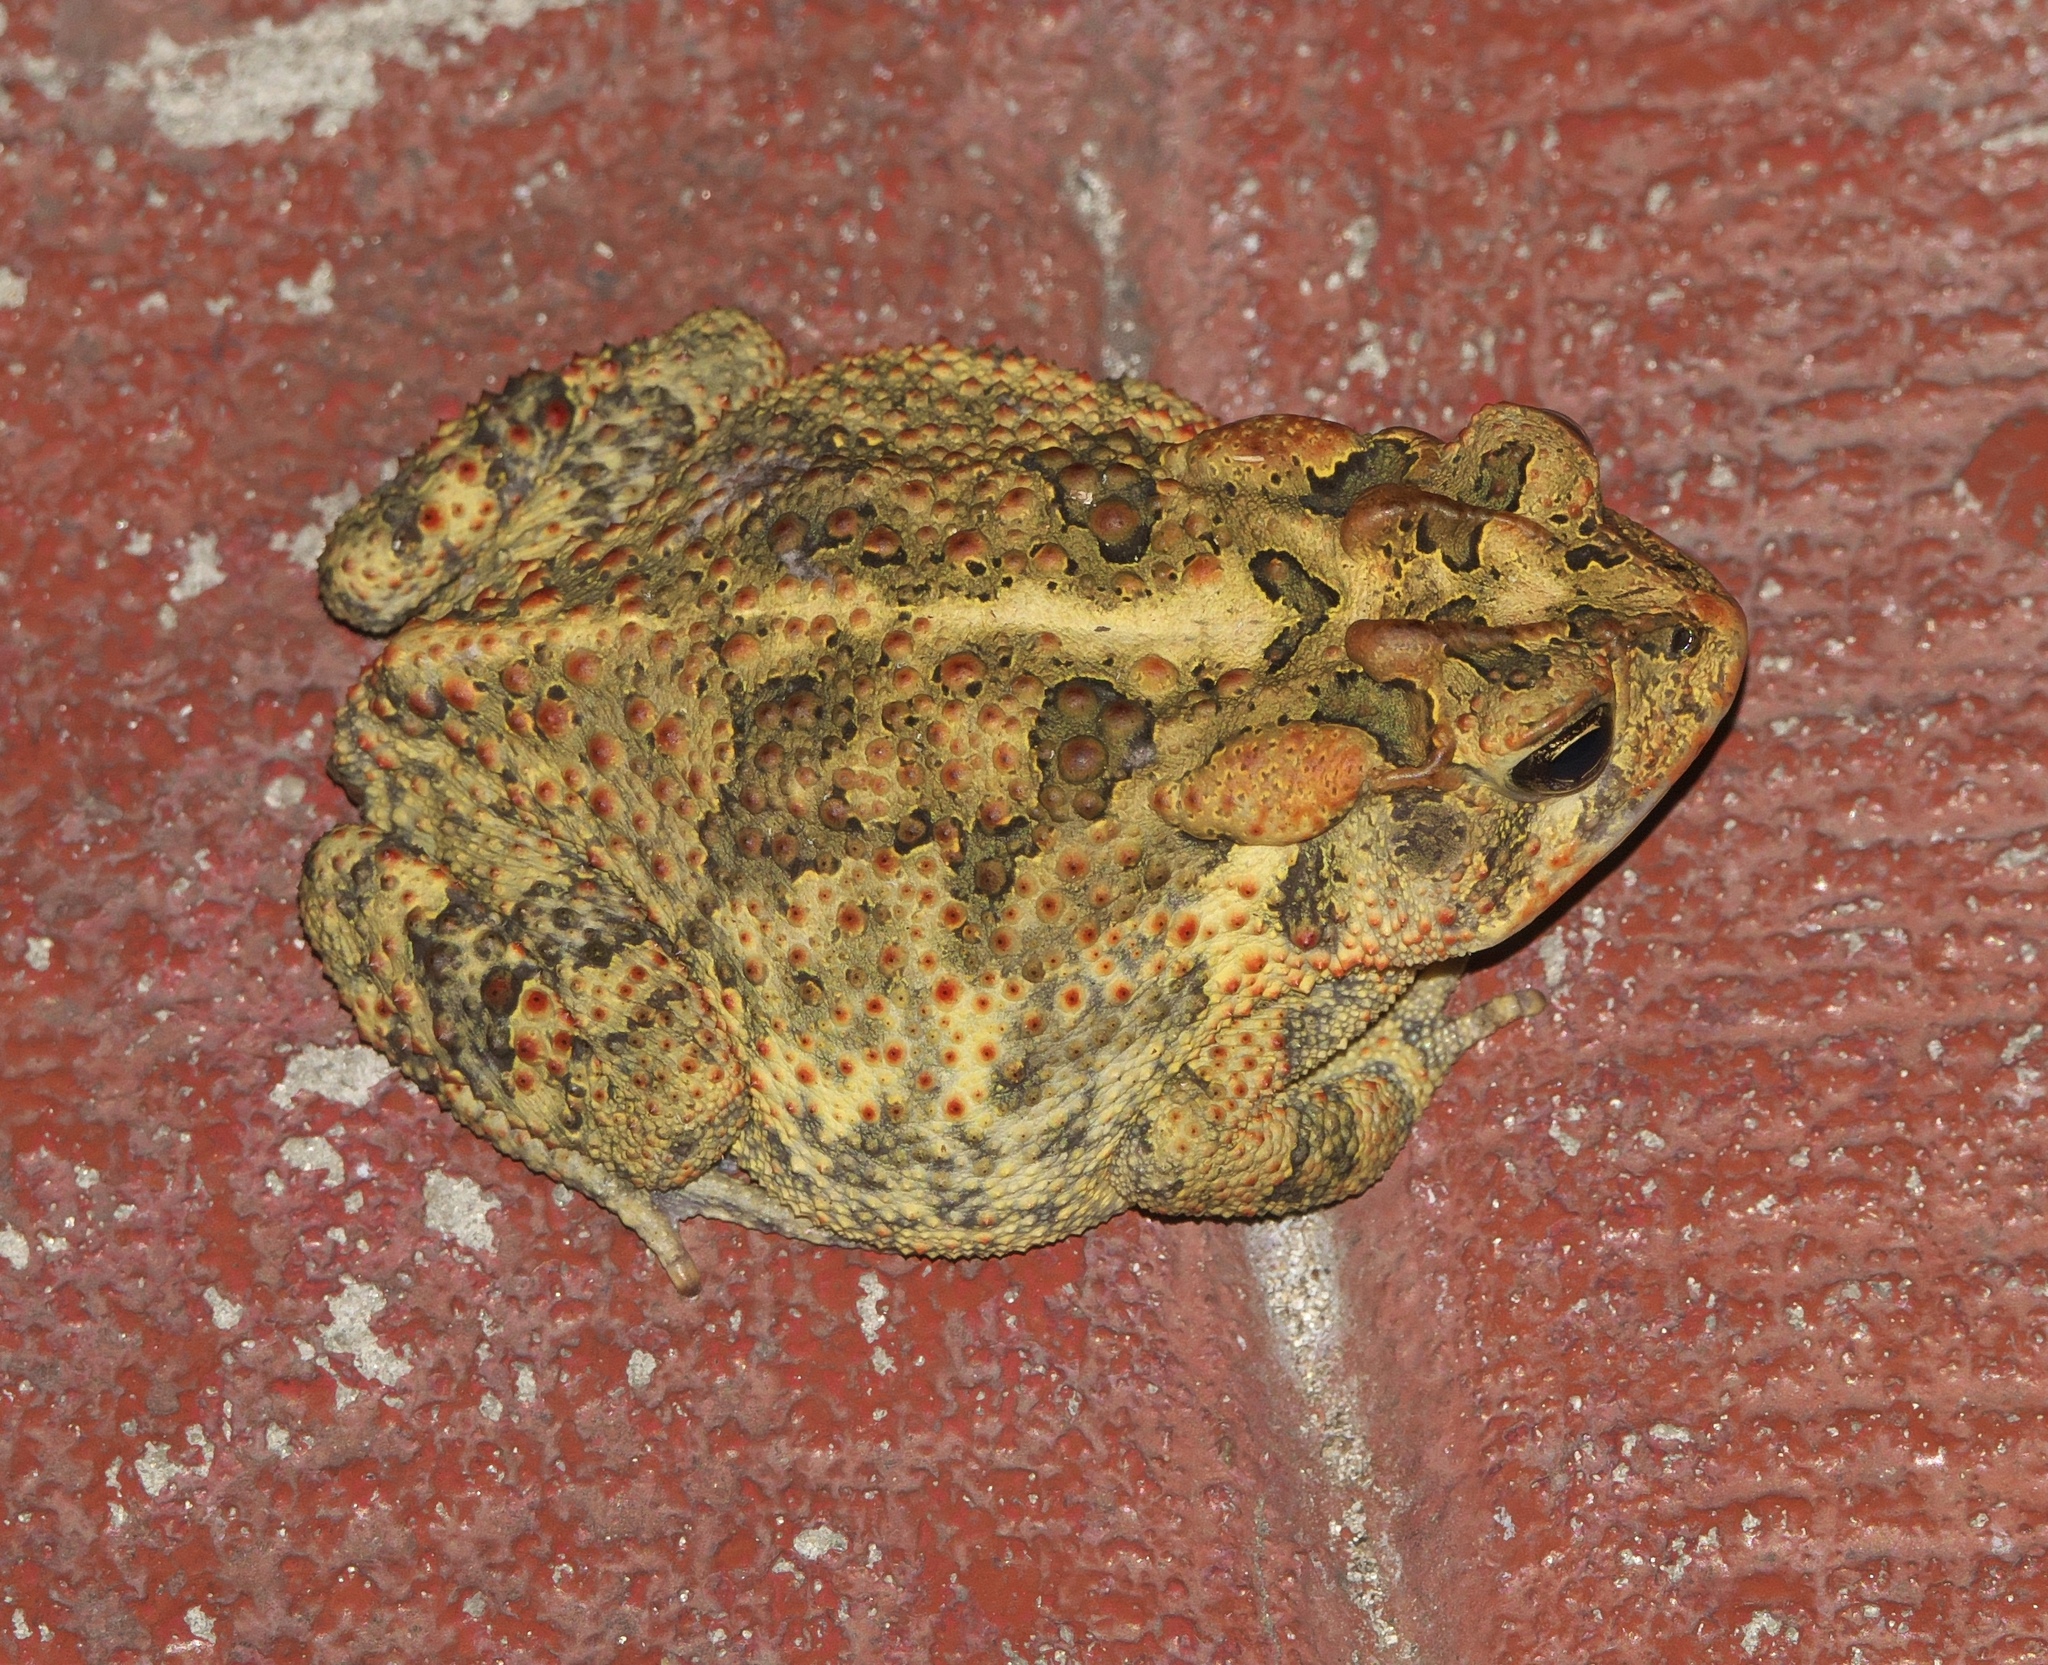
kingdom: Animalia
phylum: Chordata
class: Amphibia
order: Anura
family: Bufonidae
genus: Anaxyrus
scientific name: Anaxyrus terrestris
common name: Southern toad
